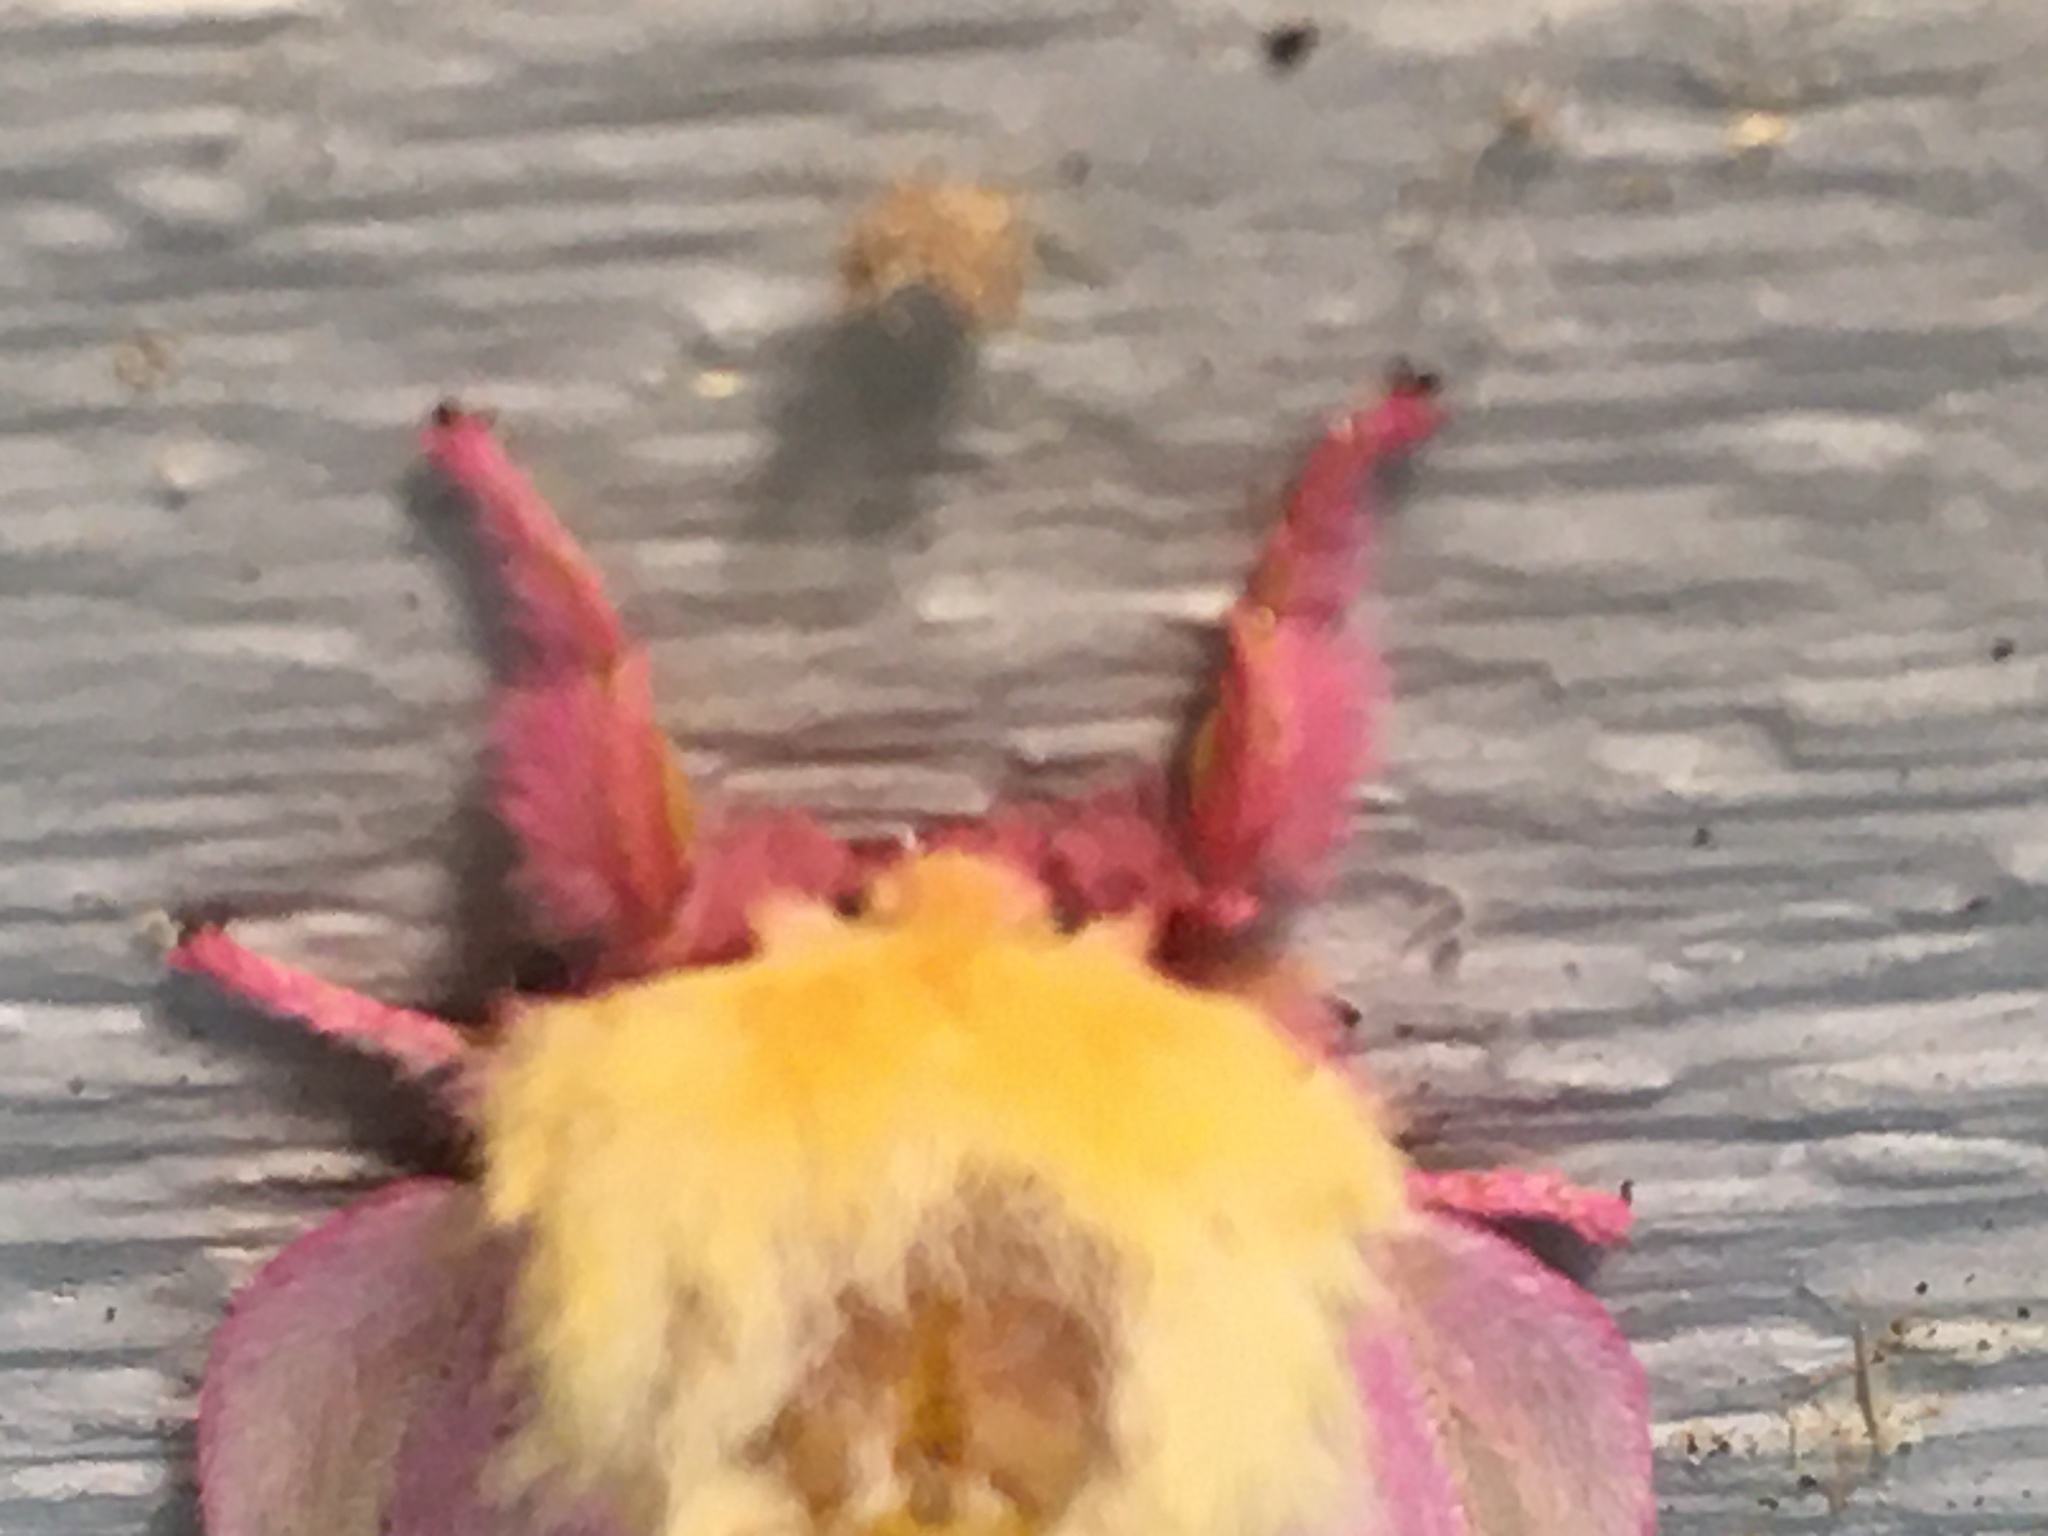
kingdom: Animalia
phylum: Arthropoda
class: Insecta
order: Lepidoptera
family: Saturniidae
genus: Dryocampa
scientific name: Dryocampa rubicunda
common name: Rosy maple moth
